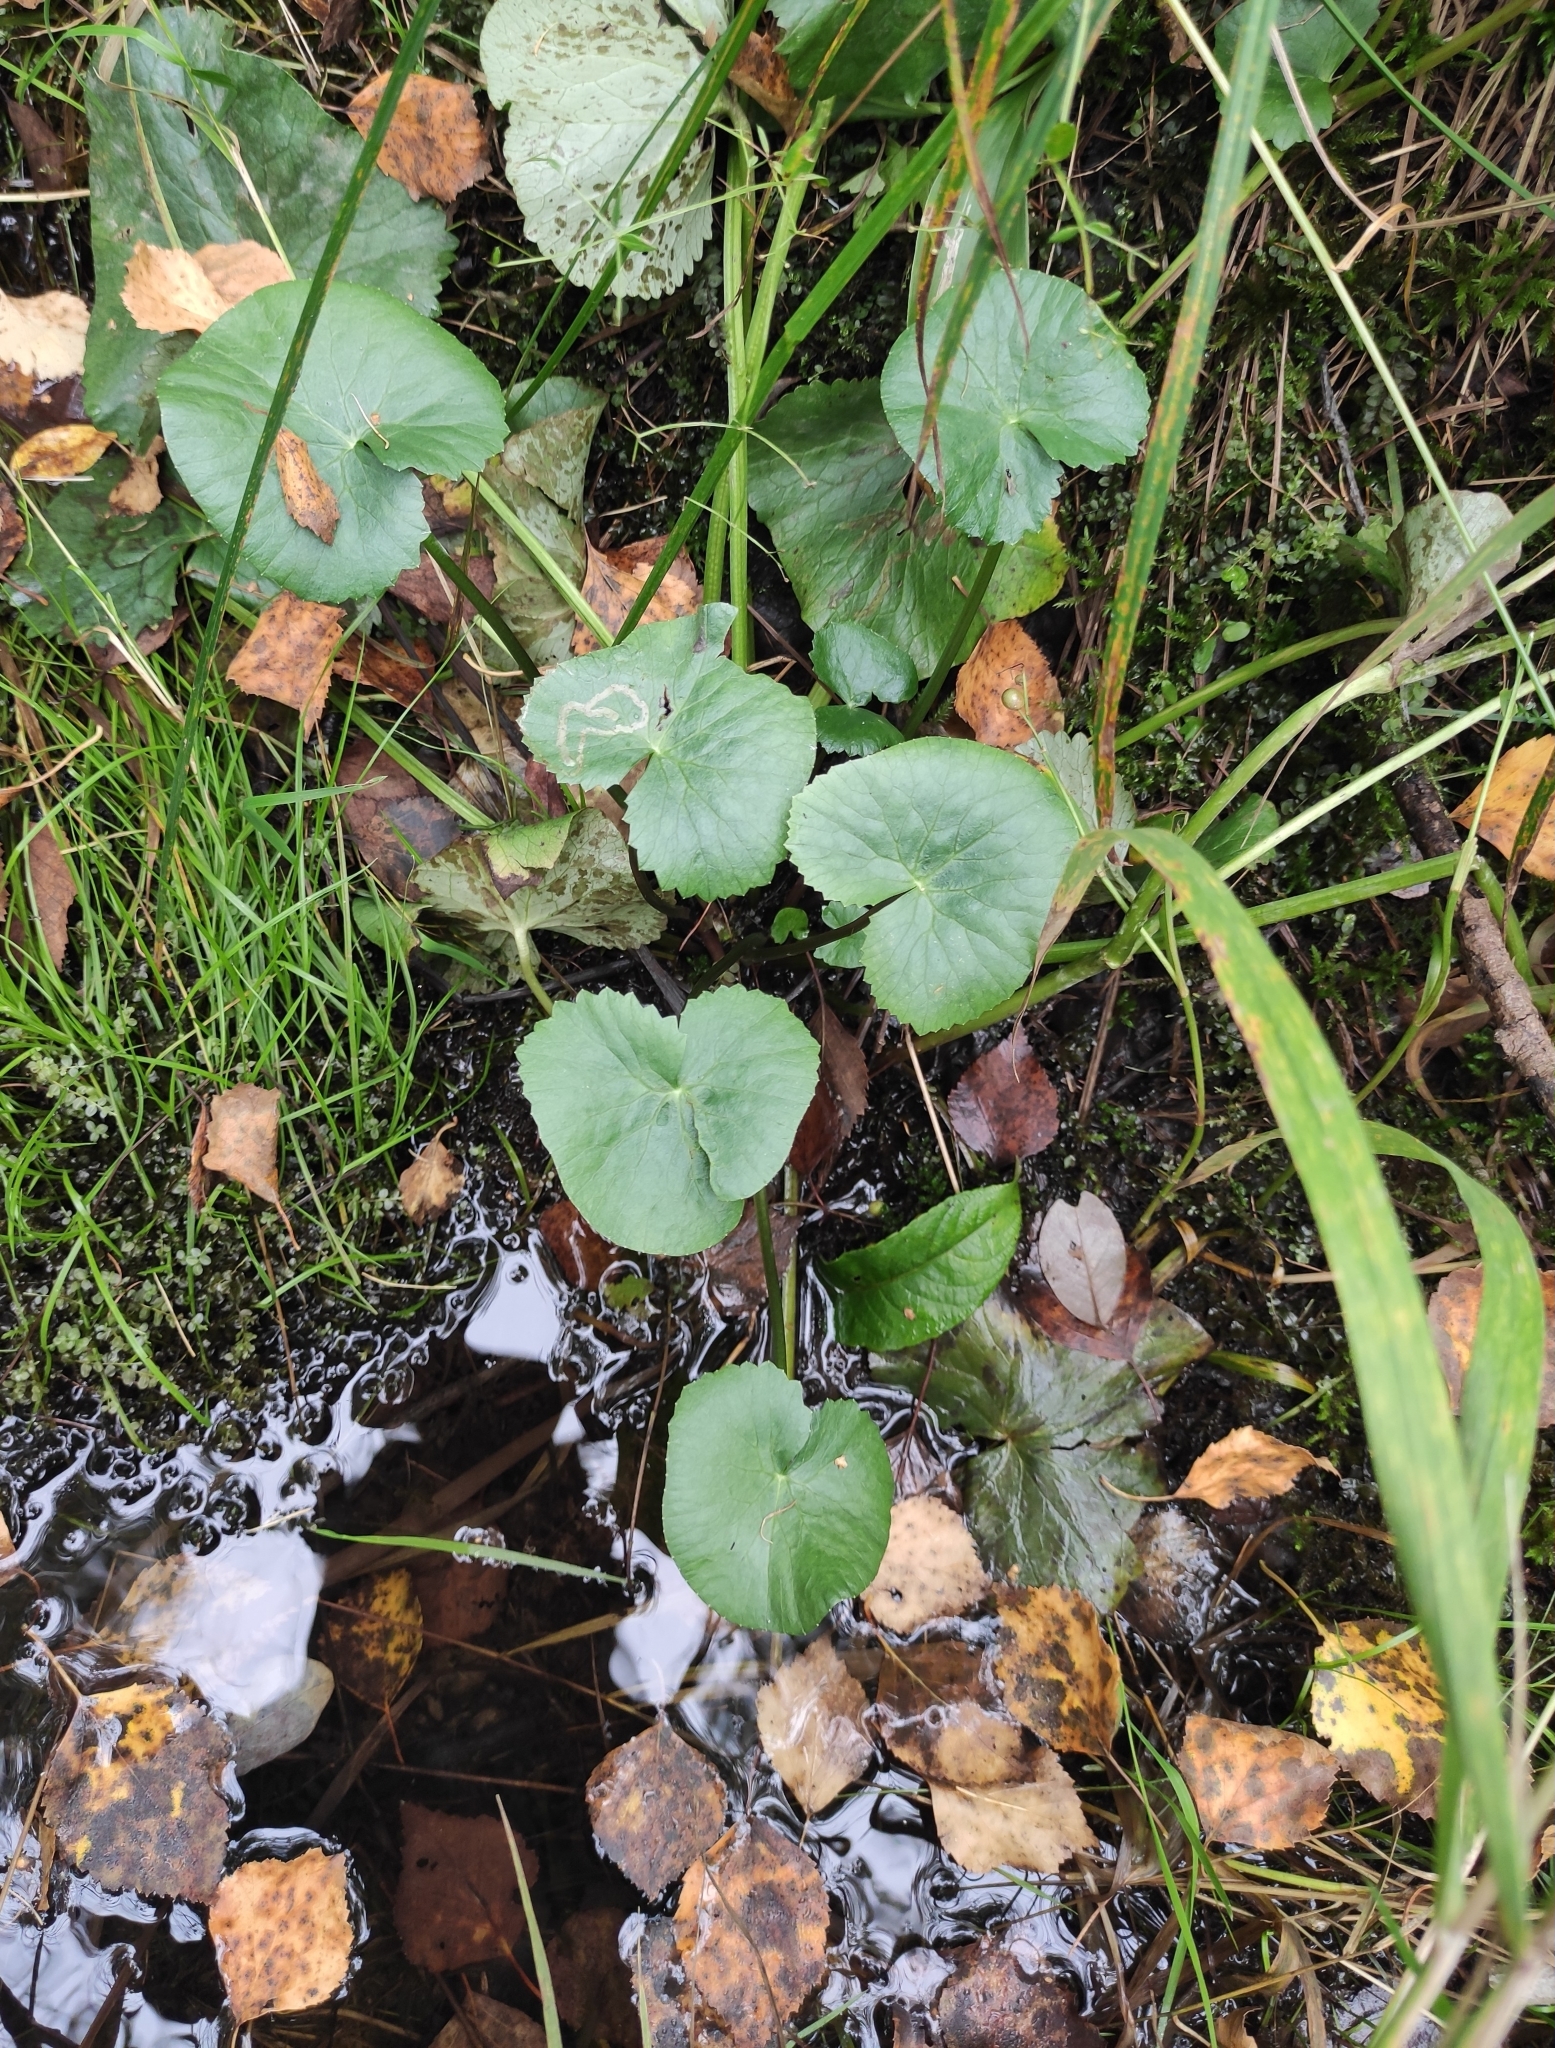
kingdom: Plantae
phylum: Tracheophyta
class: Magnoliopsida
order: Ranunculales
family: Ranunculaceae
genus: Caltha
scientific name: Caltha palustris
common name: Marsh marigold
